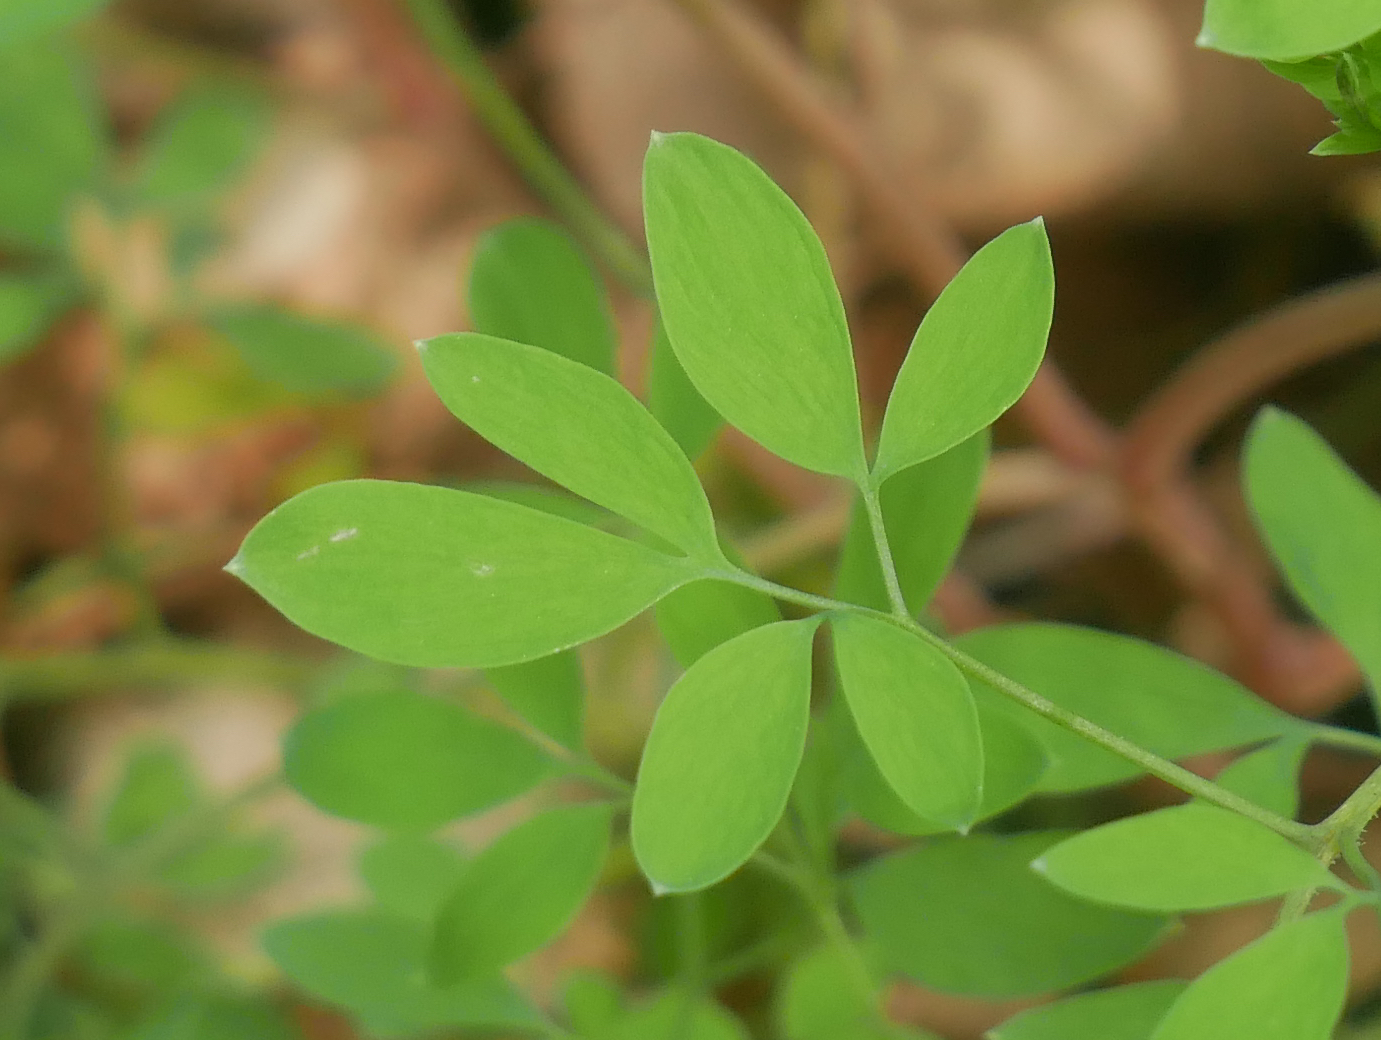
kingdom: Plantae
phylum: Tracheophyta
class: Magnoliopsida
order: Ranunculales
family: Papaveraceae
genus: Ceratocapnos
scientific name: Ceratocapnos claviculata
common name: Climbing corydalis
